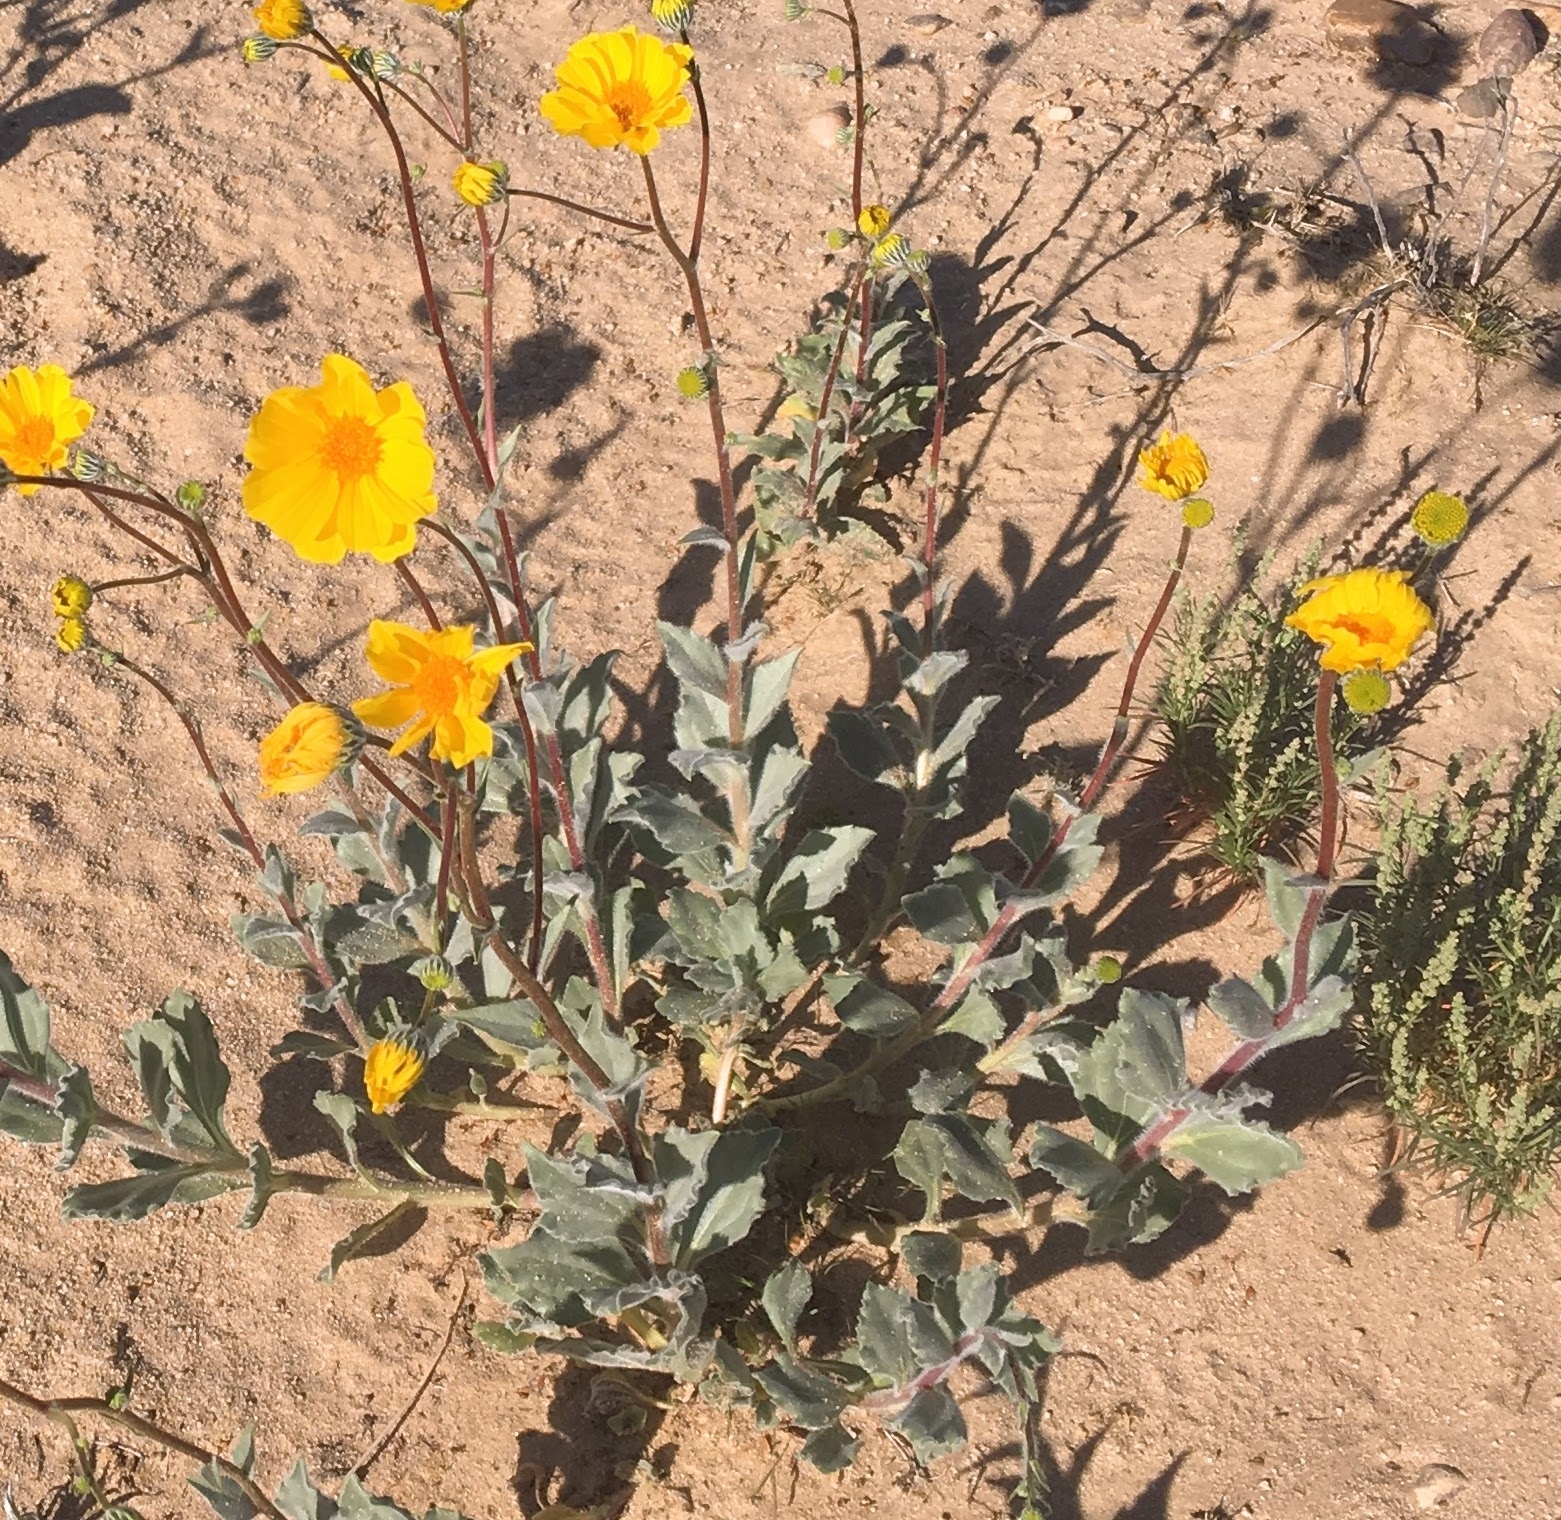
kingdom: Plantae
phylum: Tracheophyta
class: Magnoliopsida
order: Asterales
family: Asteraceae
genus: Geraea
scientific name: Geraea canescens
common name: Desert-gold
